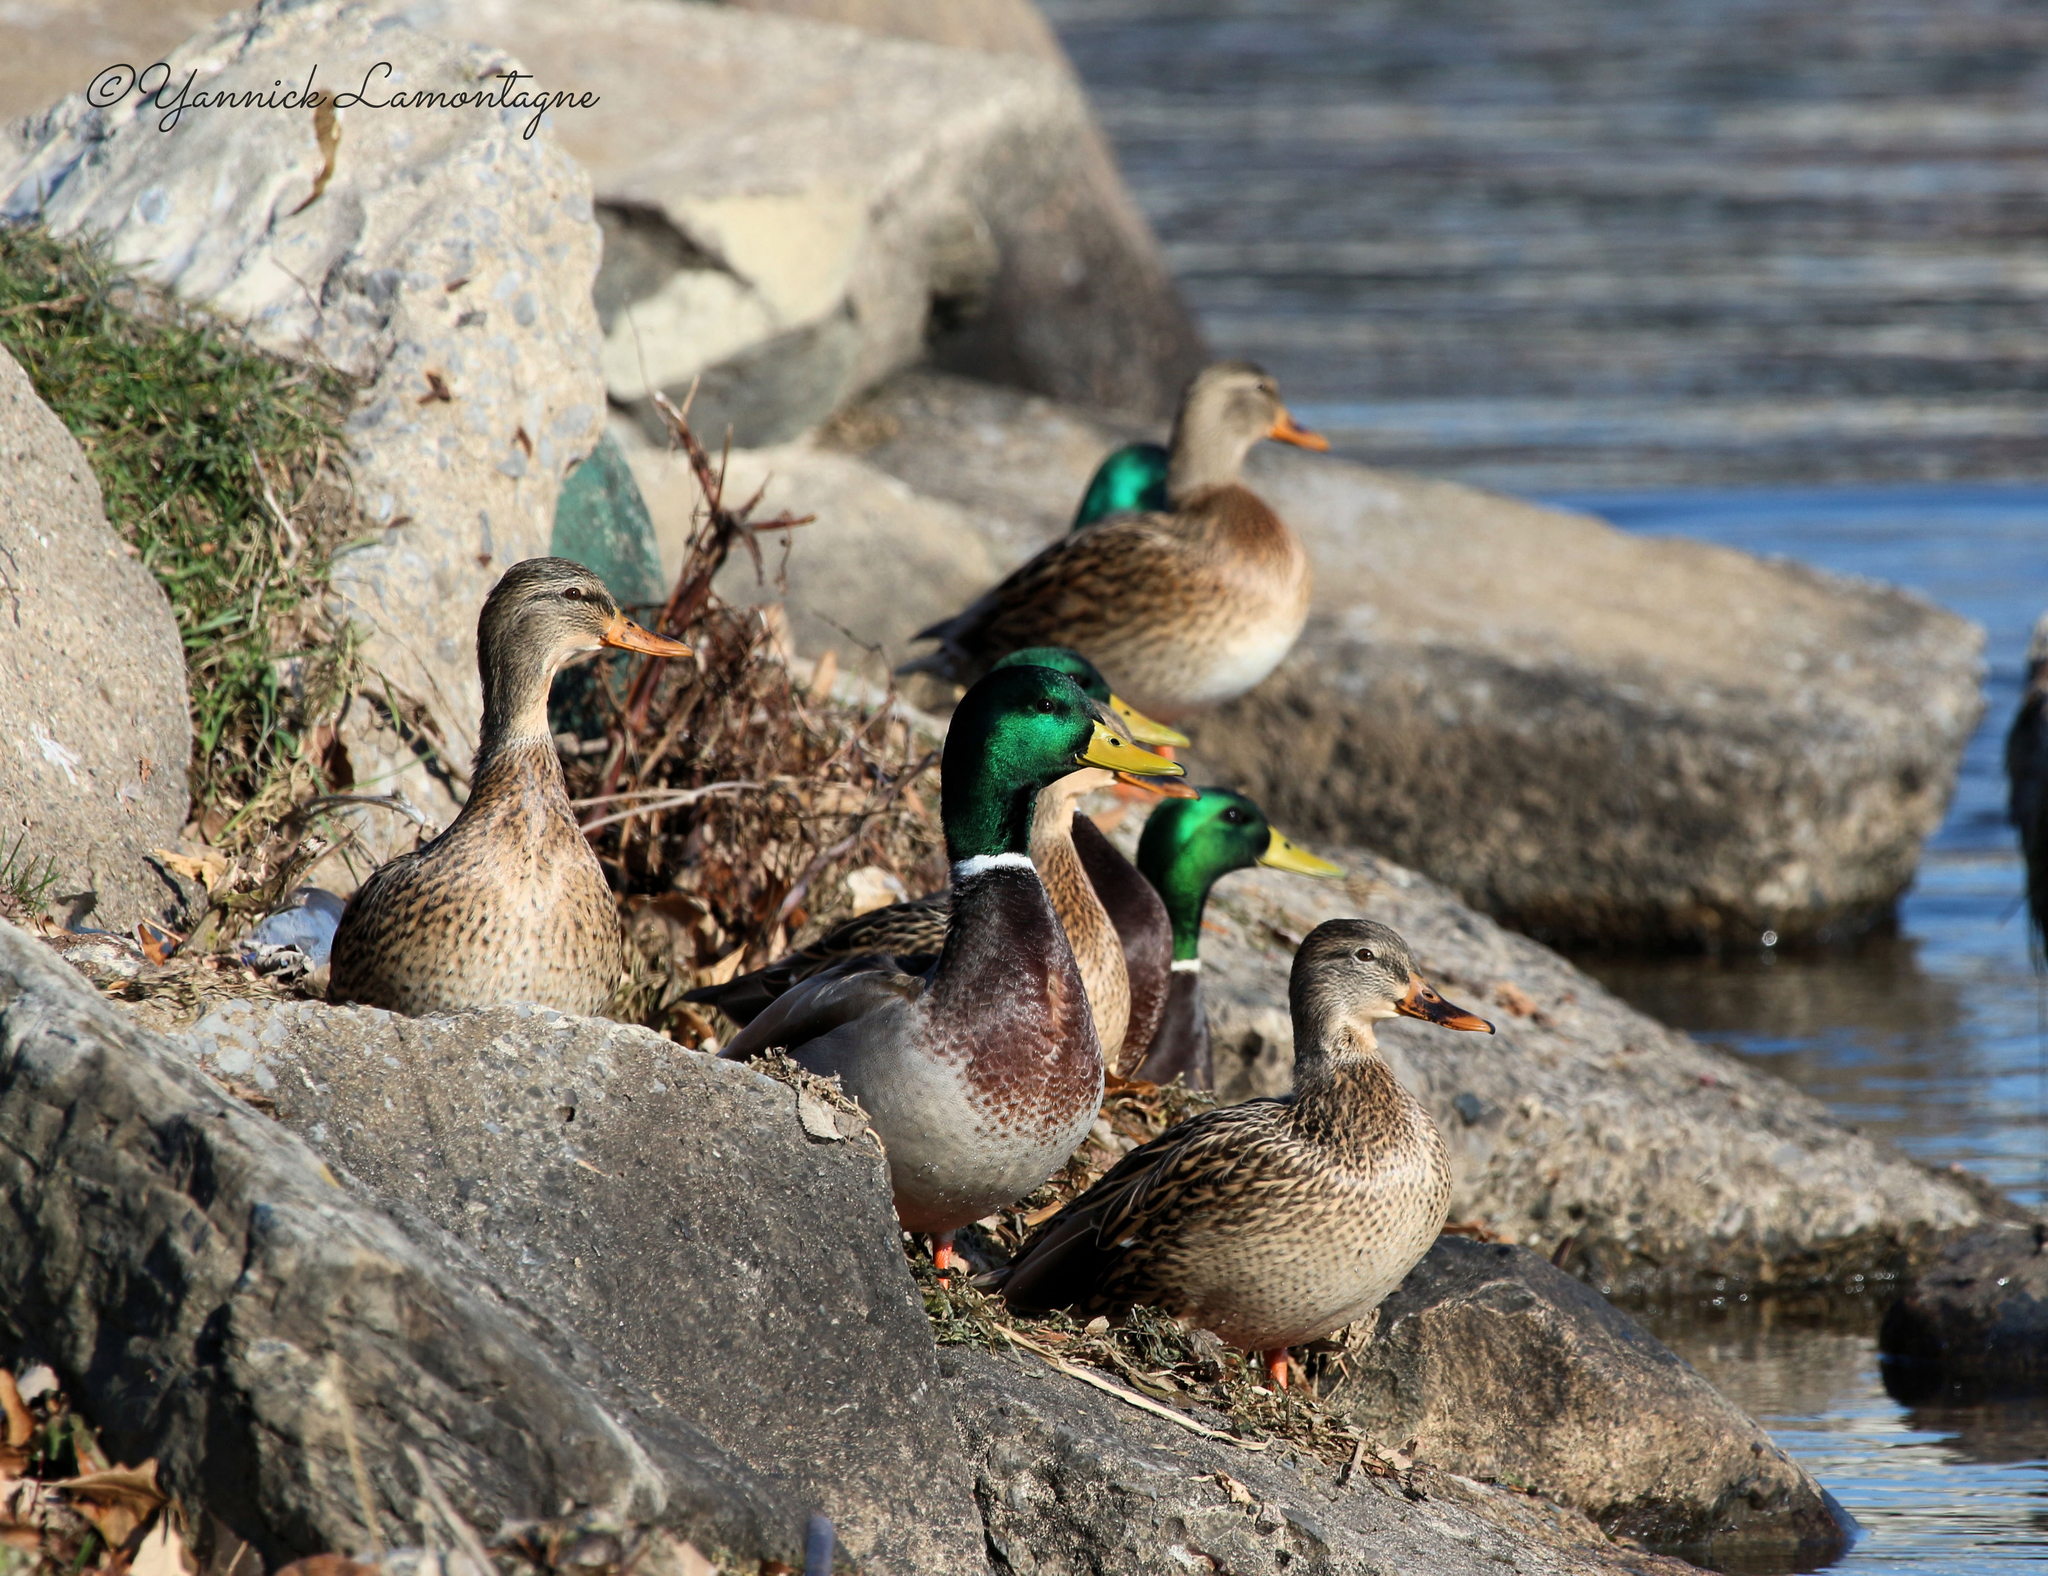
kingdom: Animalia
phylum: Chordata
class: Aves
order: Anseriformes
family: Anatidae
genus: Anas
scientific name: Anas platyrhynchos
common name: Mallard
